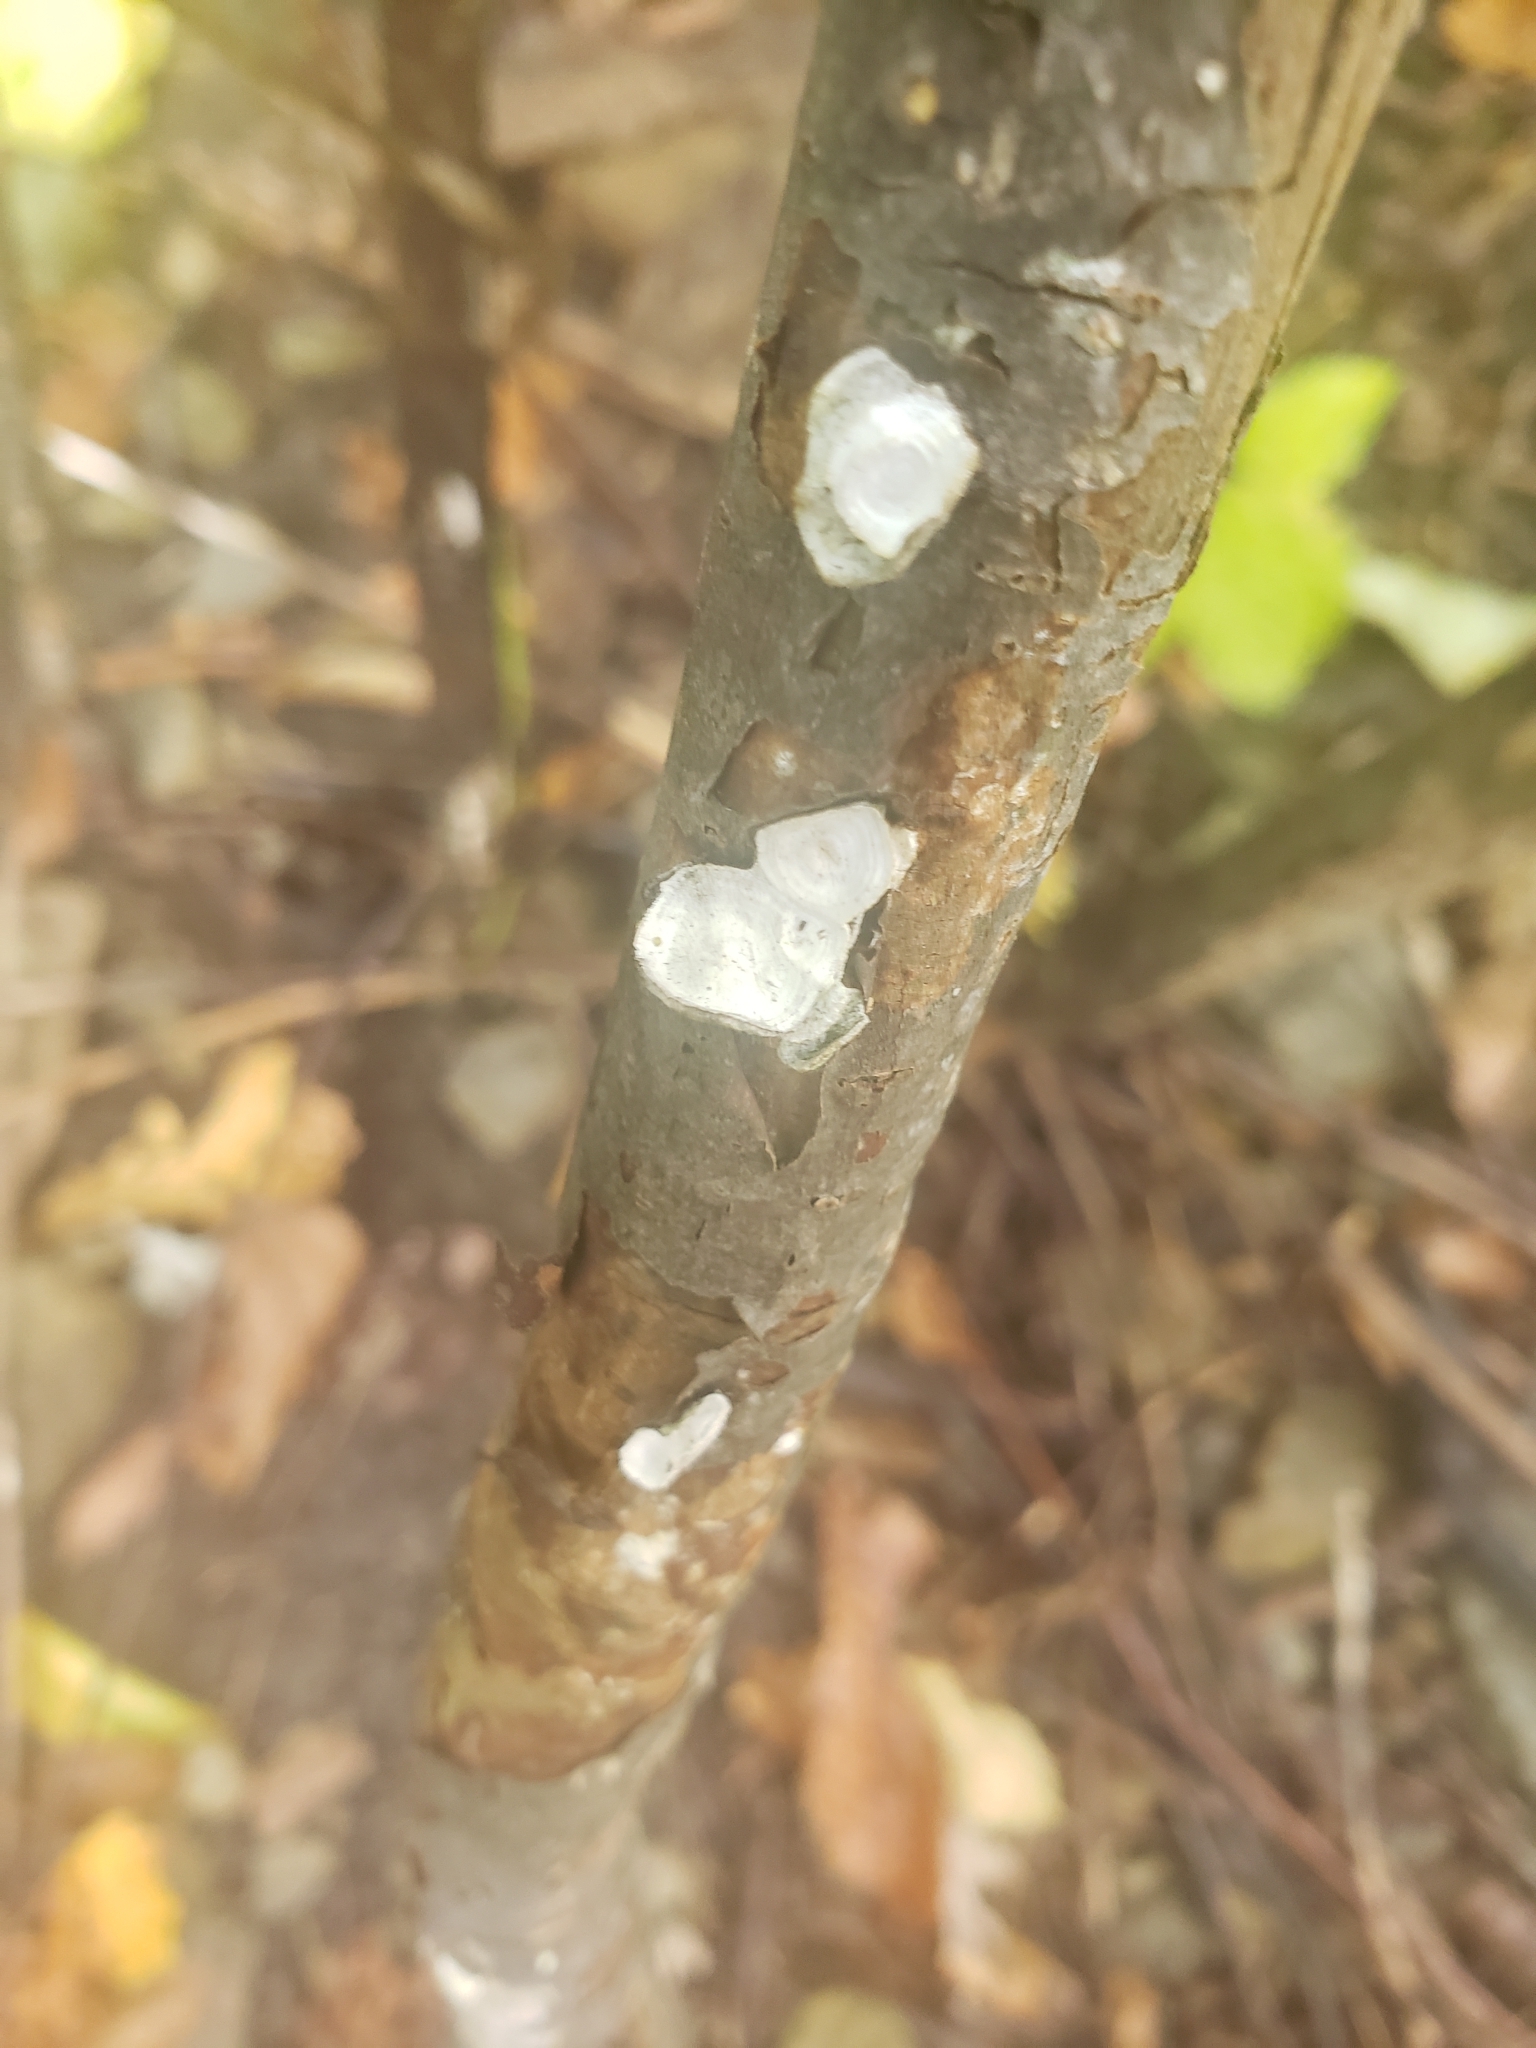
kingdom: Fungi
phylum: Basidiomycota
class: Agaricomycetes
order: Polyporales
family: Polyporaceae
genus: Poronidulus
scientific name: Poronidulus conchifer
